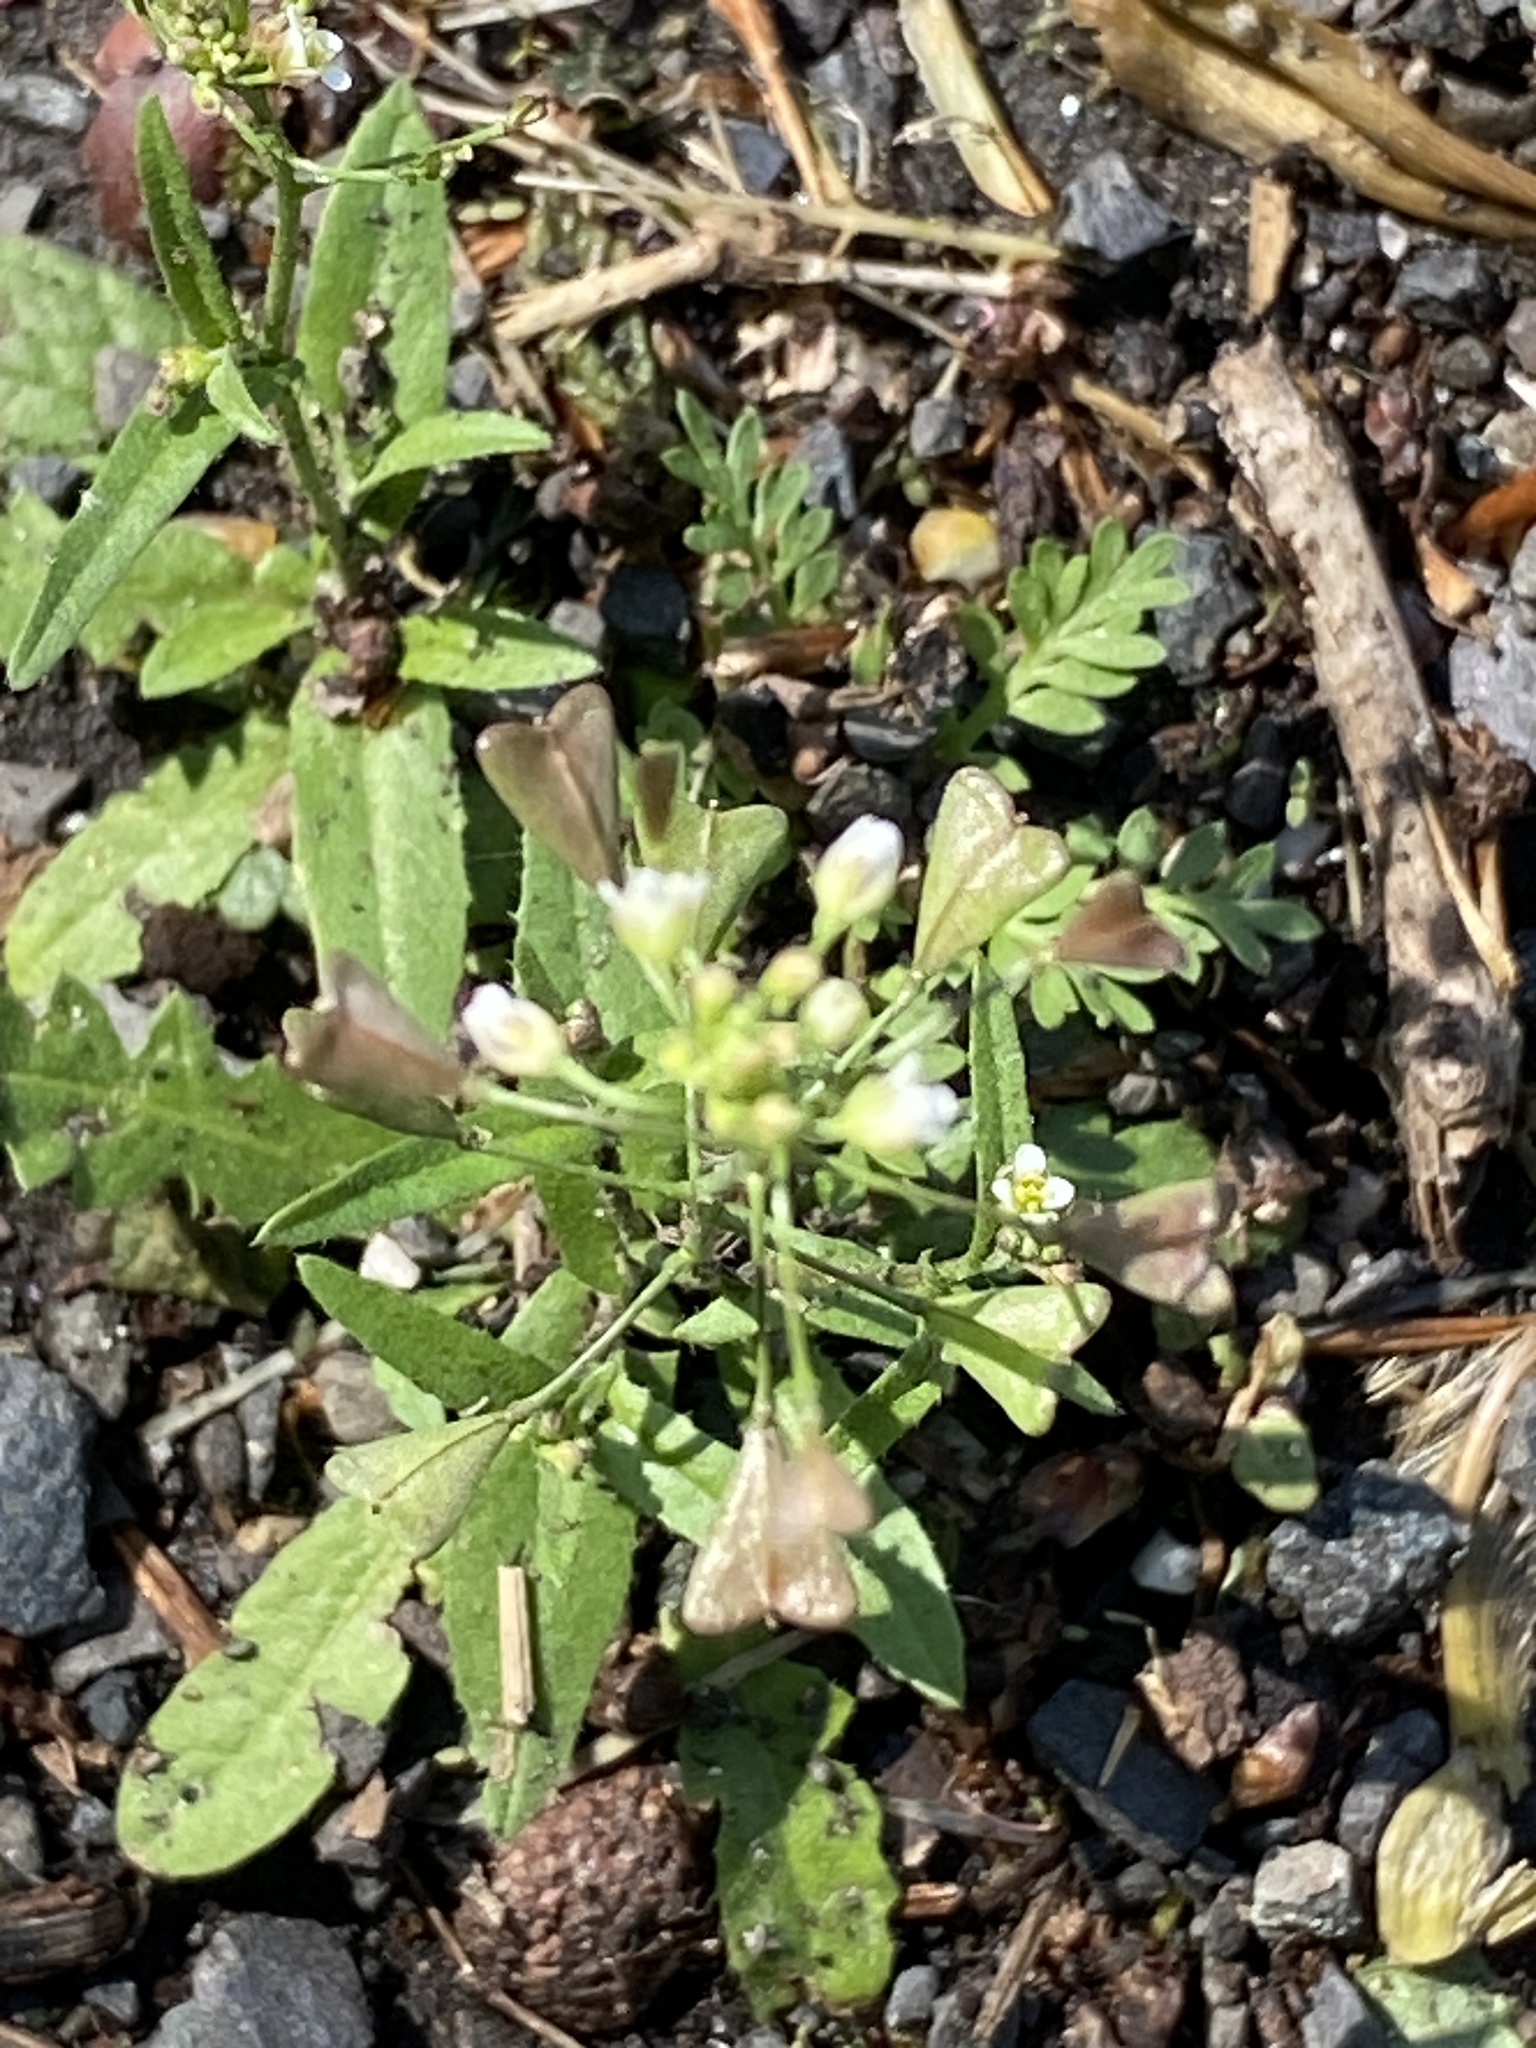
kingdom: Plantae
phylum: Tracheophyta
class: Magnoliopsida
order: Brassicales
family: Brassicaceae
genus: Capsella
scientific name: Capsella bursa-pastoris
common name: Shepherd's purse
